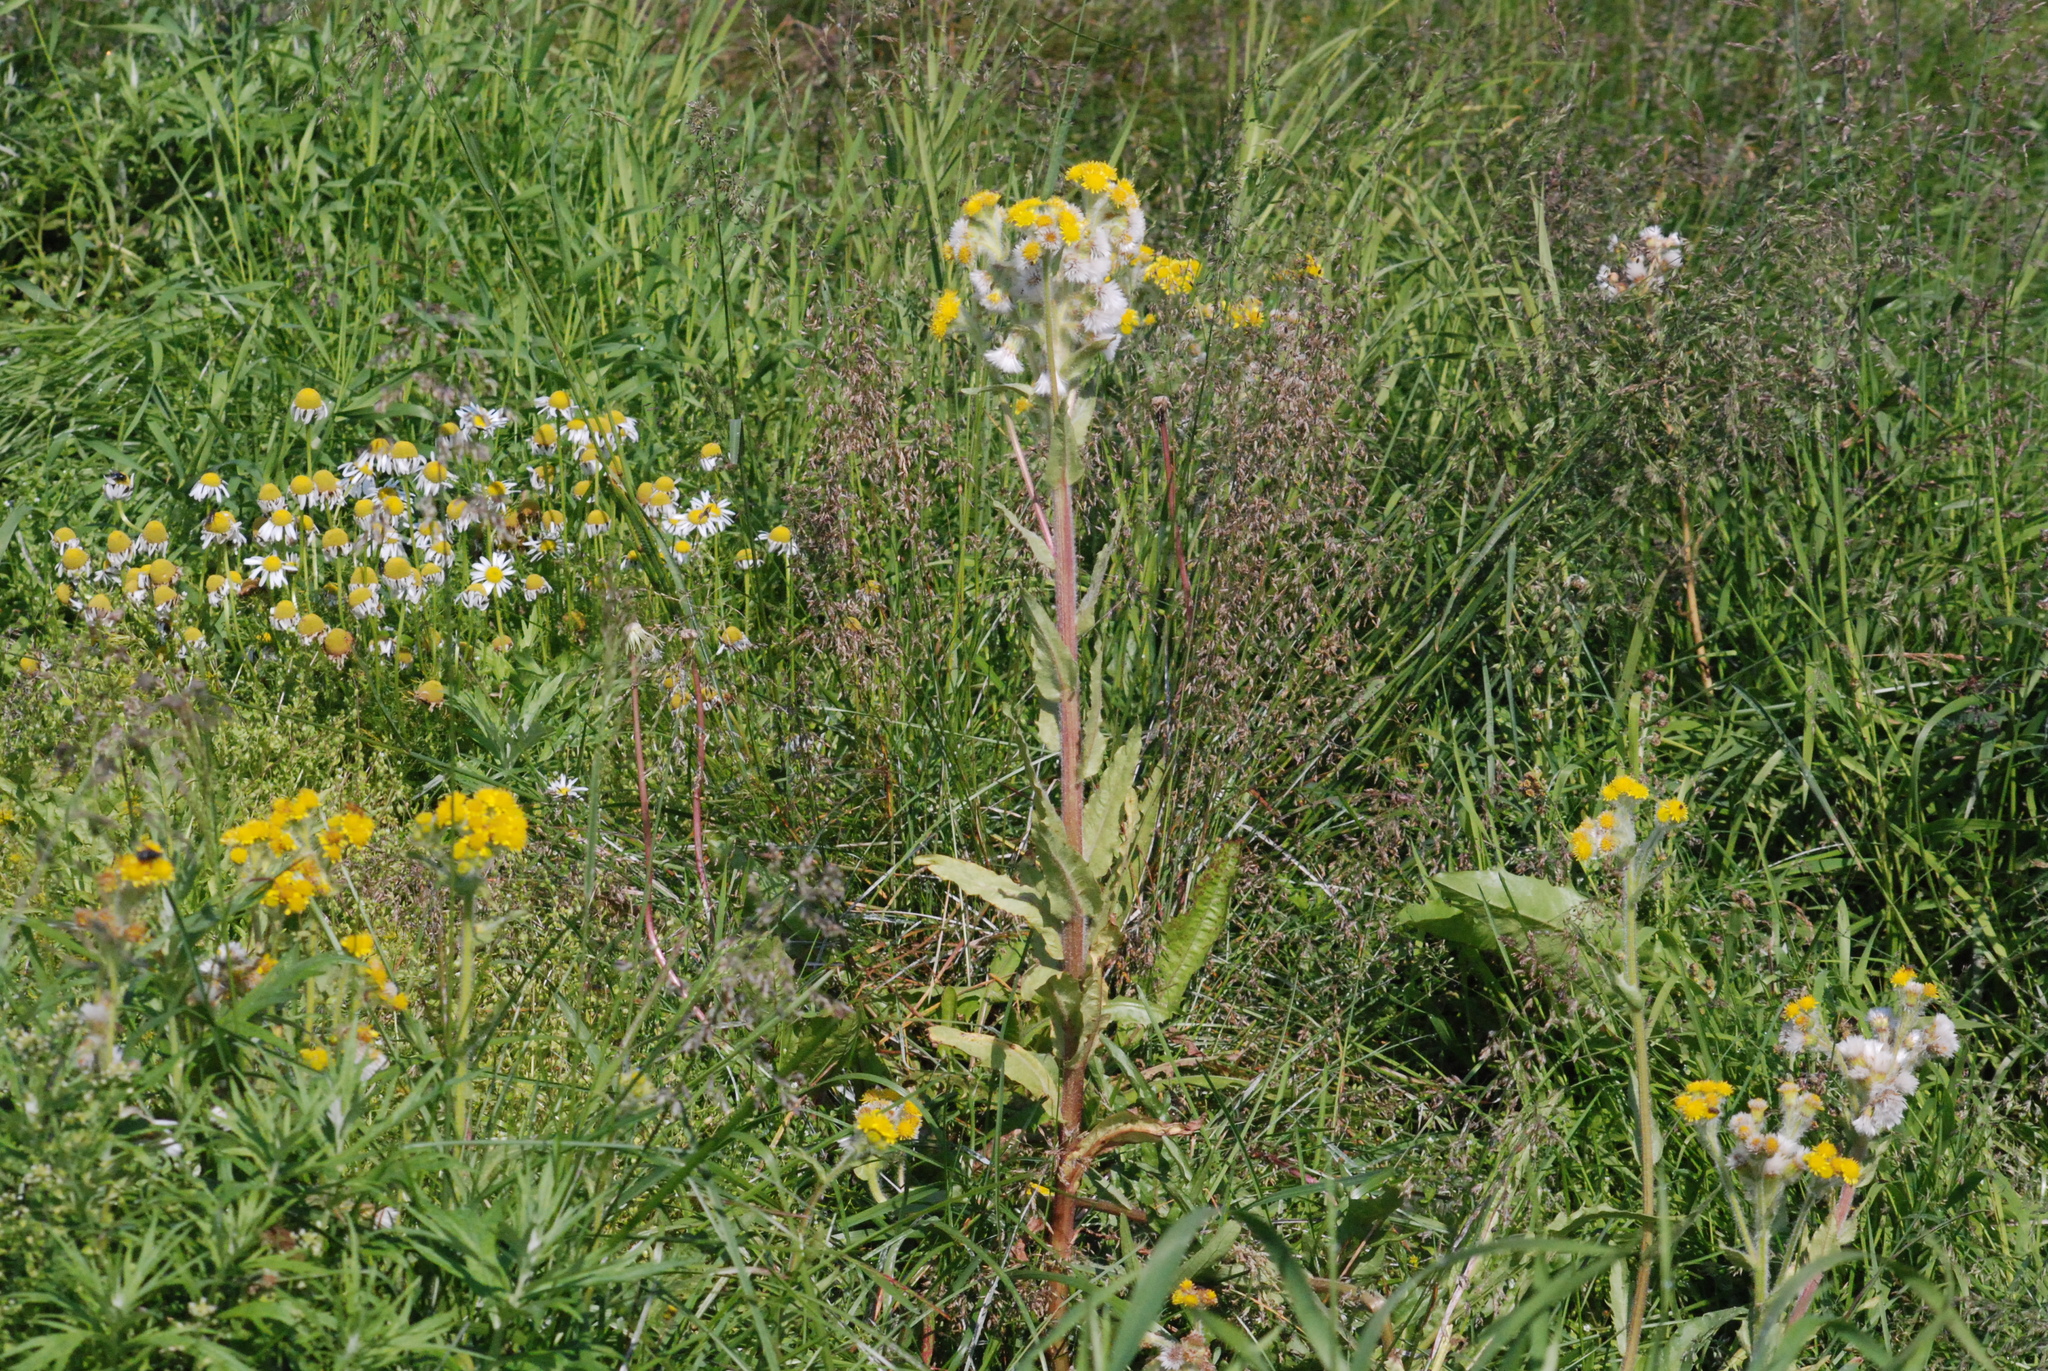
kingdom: Plantae
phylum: Tracheophyta
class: Magnoliopsida
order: Asterales
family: Asteraceae
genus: Tephroseris
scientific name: Tephroseris palustris
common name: Marsh fleawort
